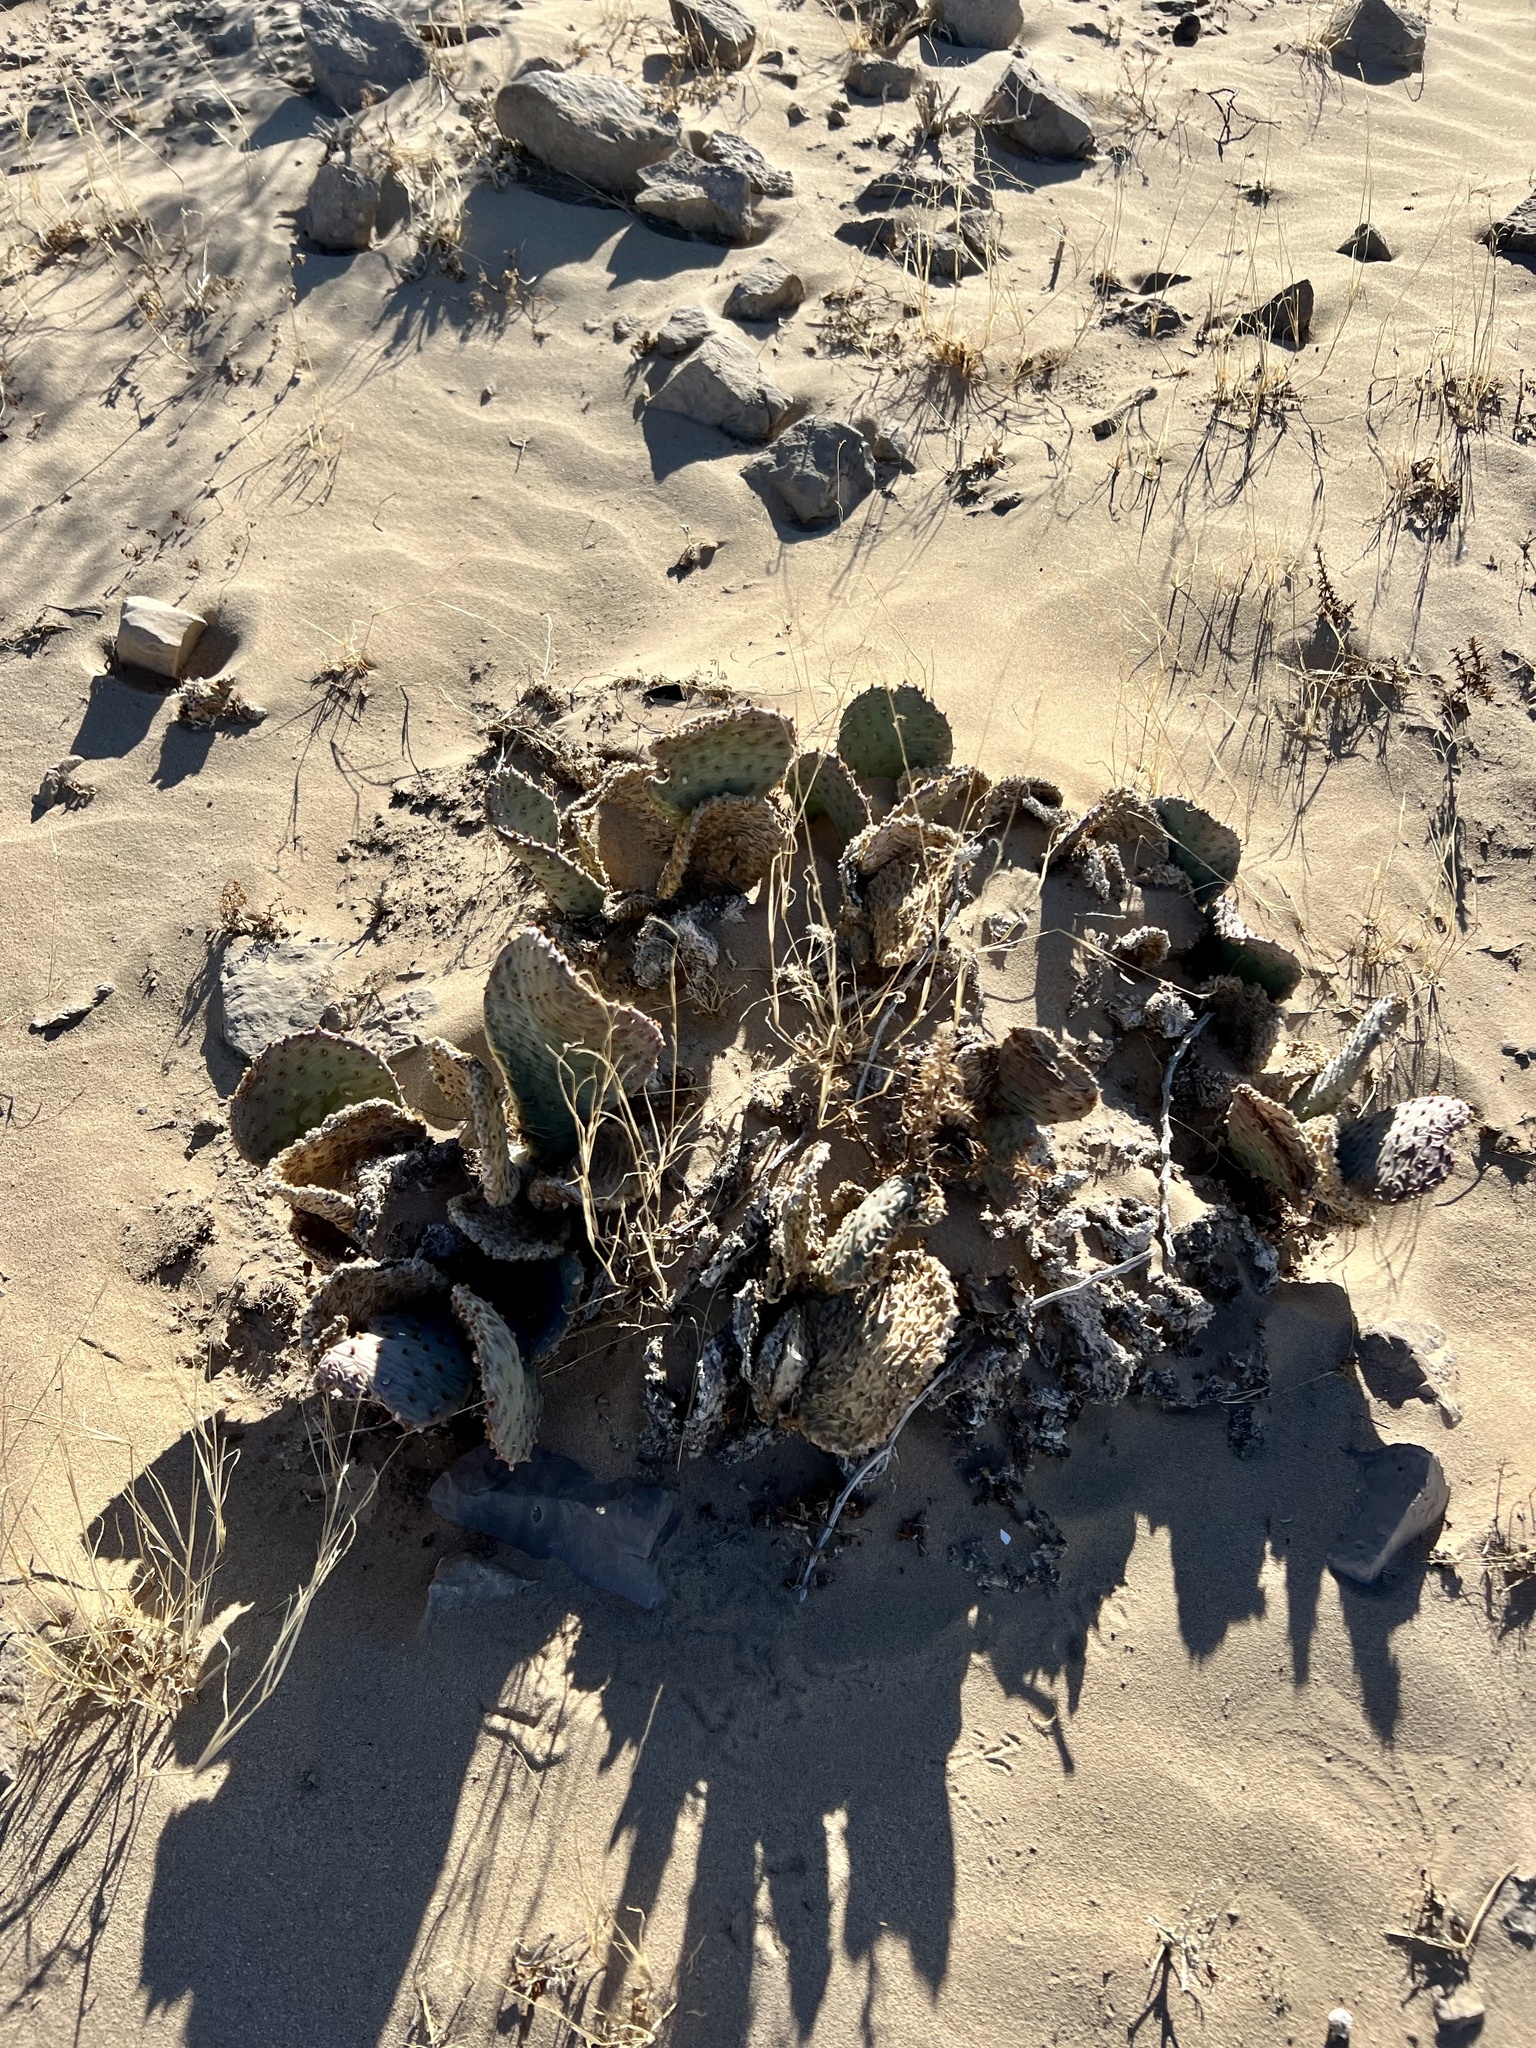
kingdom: Plantae
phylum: Tracheophyta
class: Magnoliopsida
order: Caryophyllales
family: Cactaceae
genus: Opuntia
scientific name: Opuntia basilaris
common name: Beavertail prickly-pear
